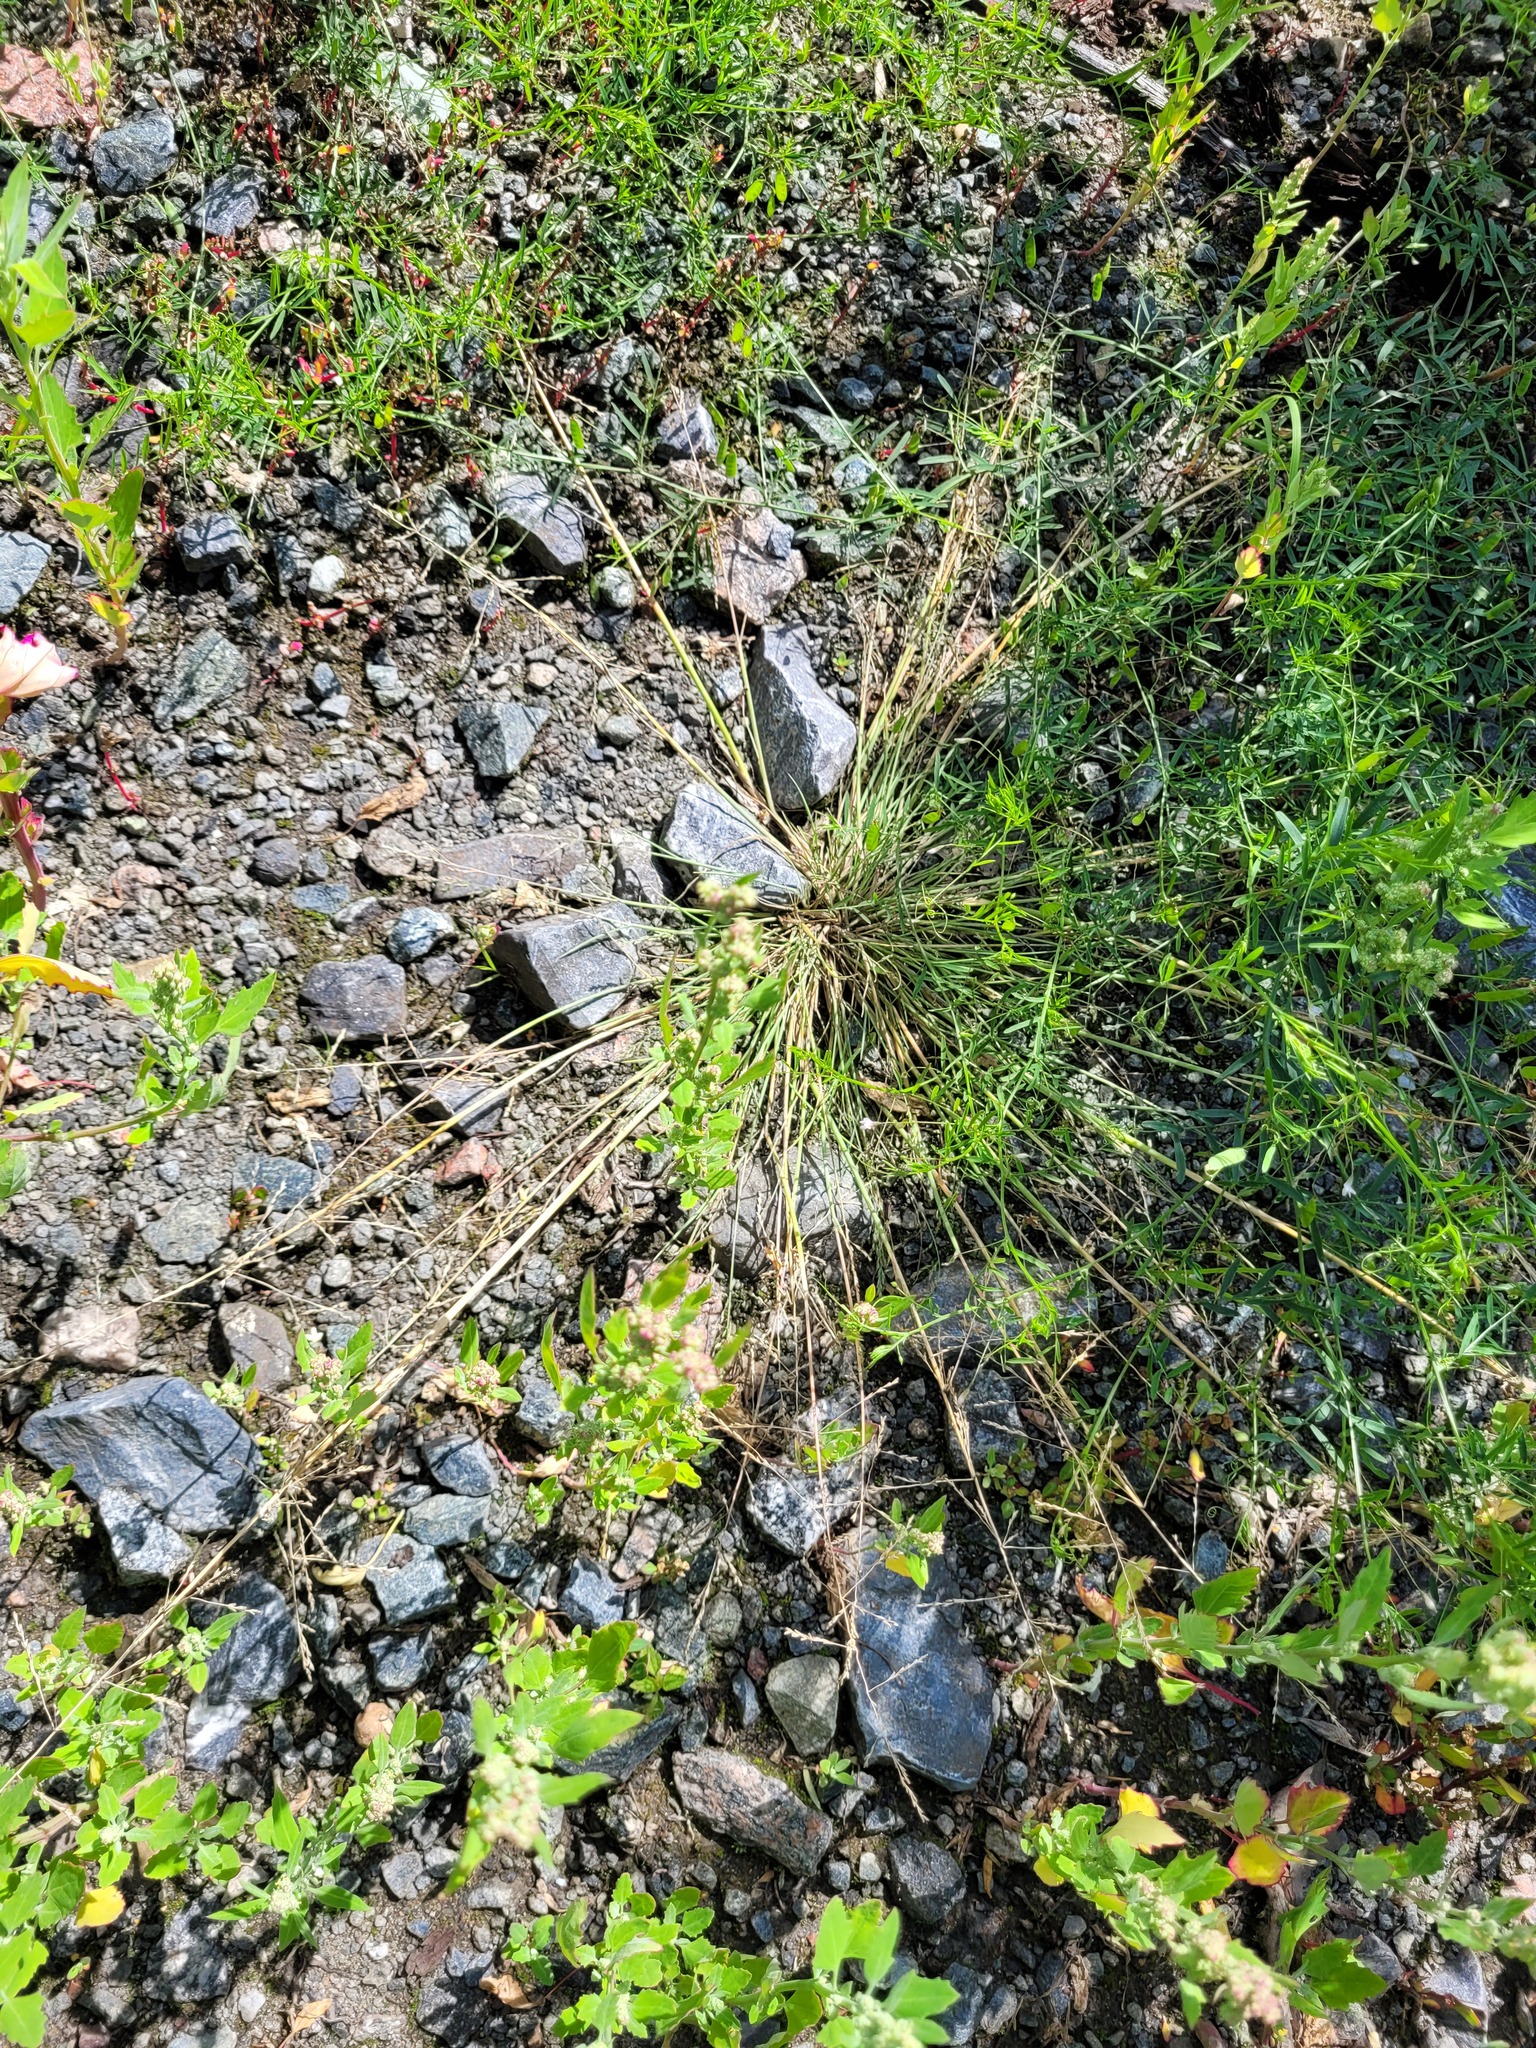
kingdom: Plantae
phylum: Tracheophyta
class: Liliopsida
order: Poales
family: Poaceae
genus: Puccinellia
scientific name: Puccinellia distans
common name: Weeping alkaligrass
